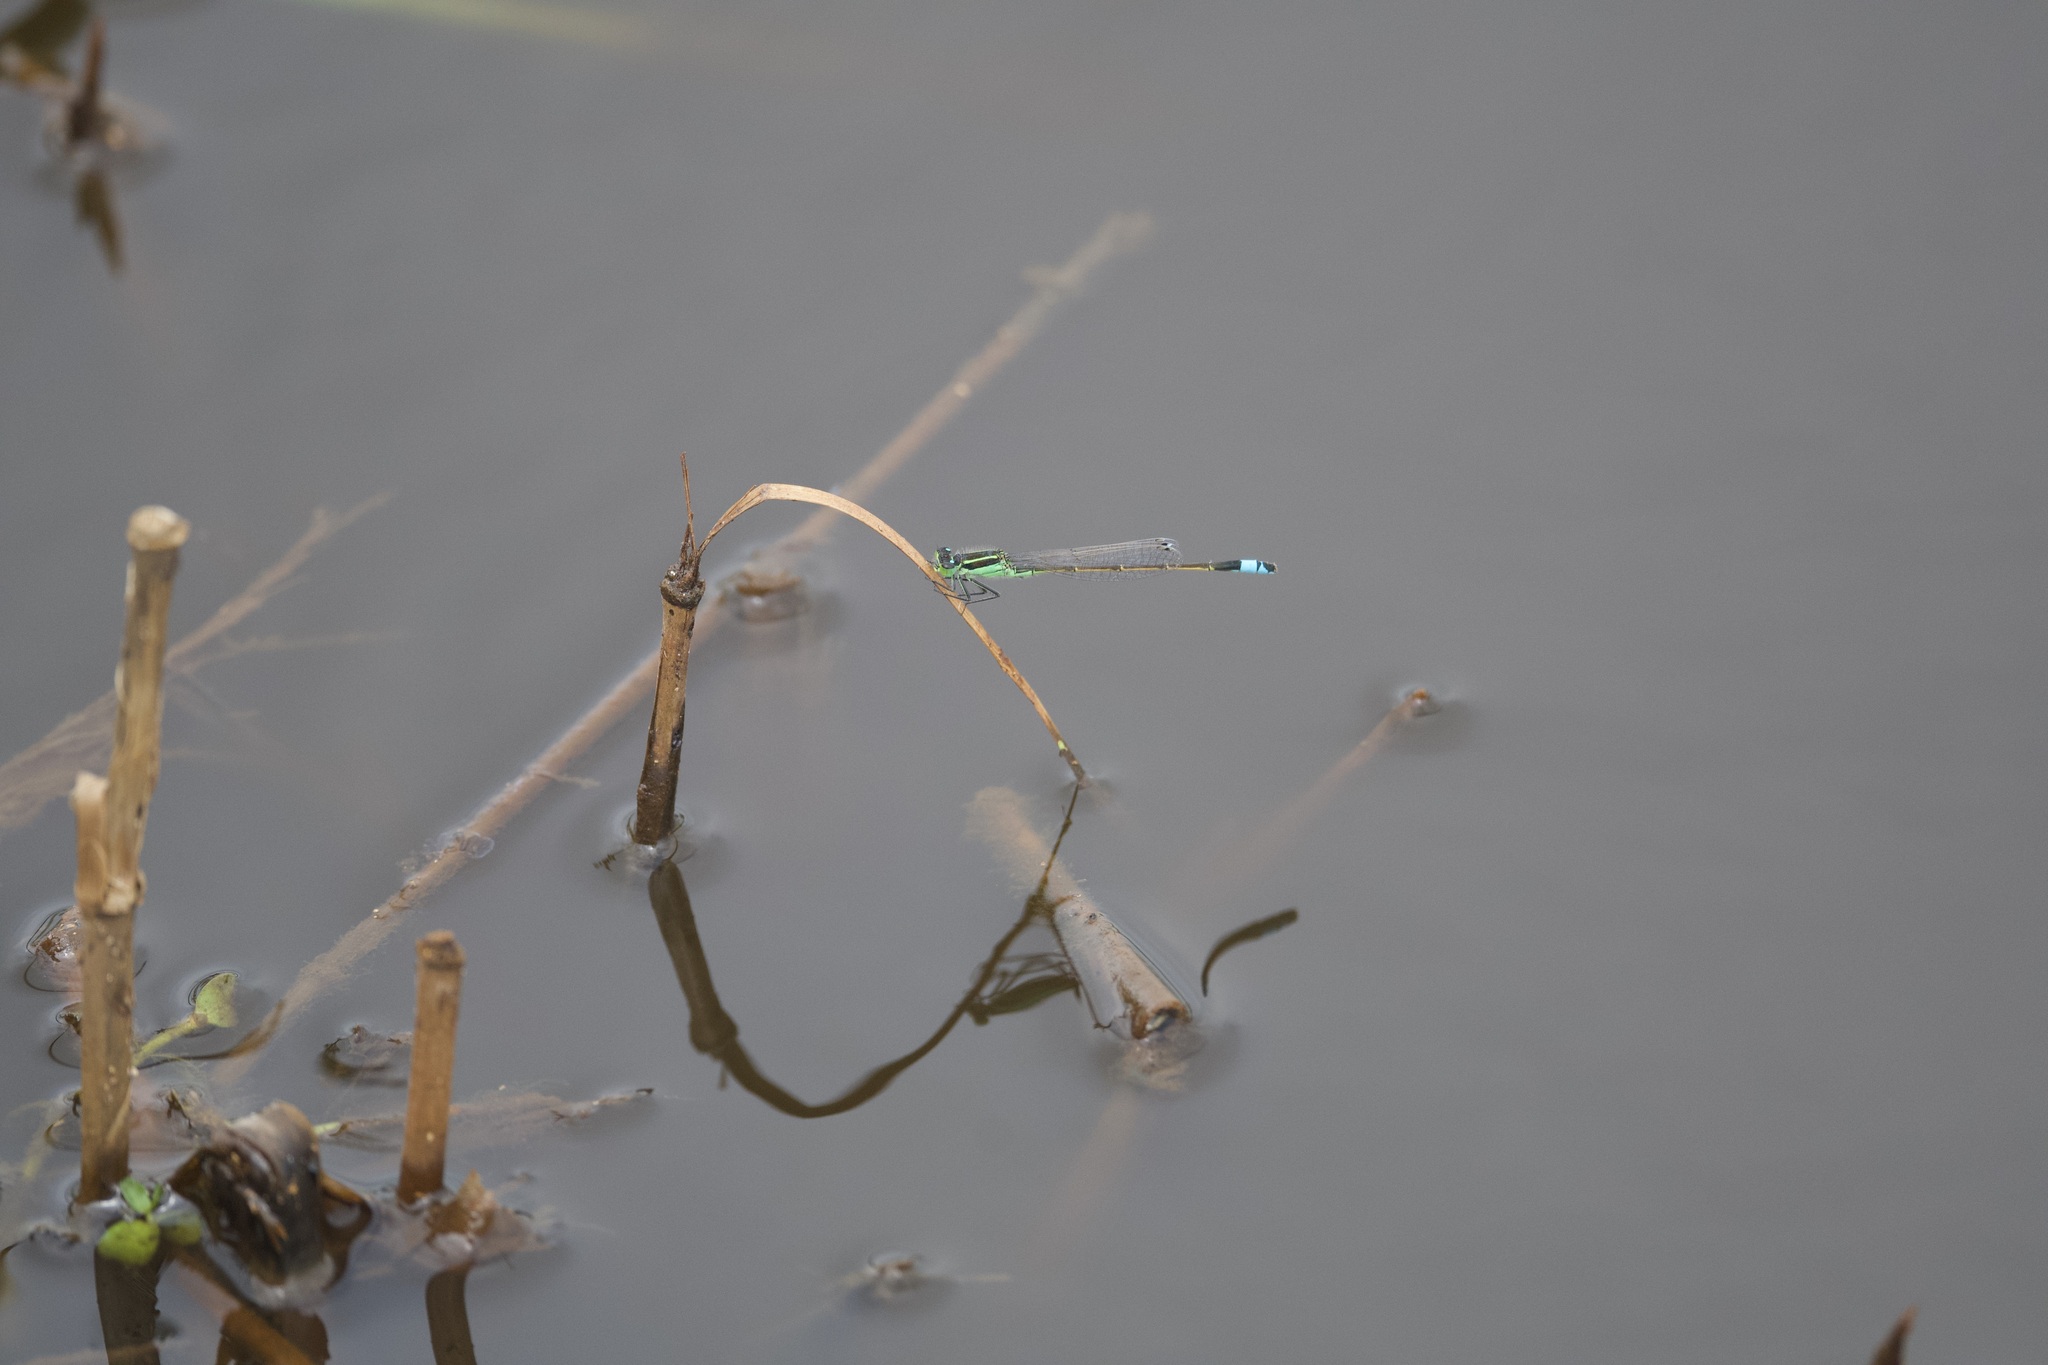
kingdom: Animalia
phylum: Arthropoda
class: Insecta
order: Odonata
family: Coenagrionidae
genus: Ischnura
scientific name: Ischnura ramburii
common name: Rambur's forktail
